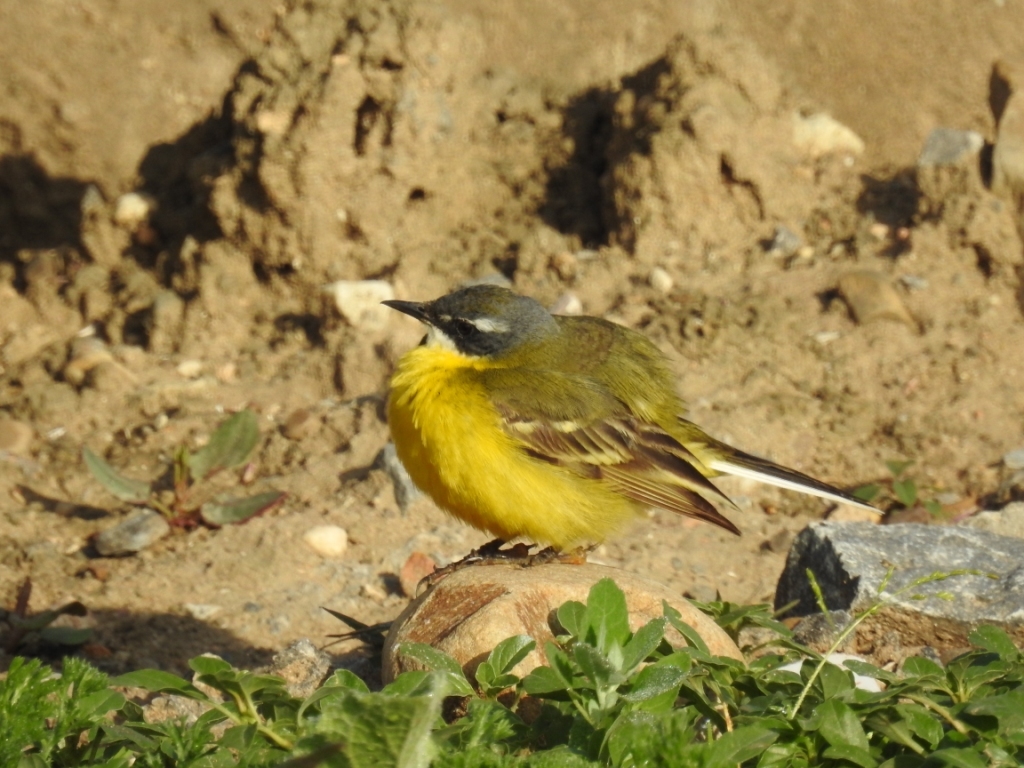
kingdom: Animalia
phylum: Chordata
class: Aves
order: Passeriformes
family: Motacillidae
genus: Motacilla
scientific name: Motacilla flava
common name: Western yellow wagtail
